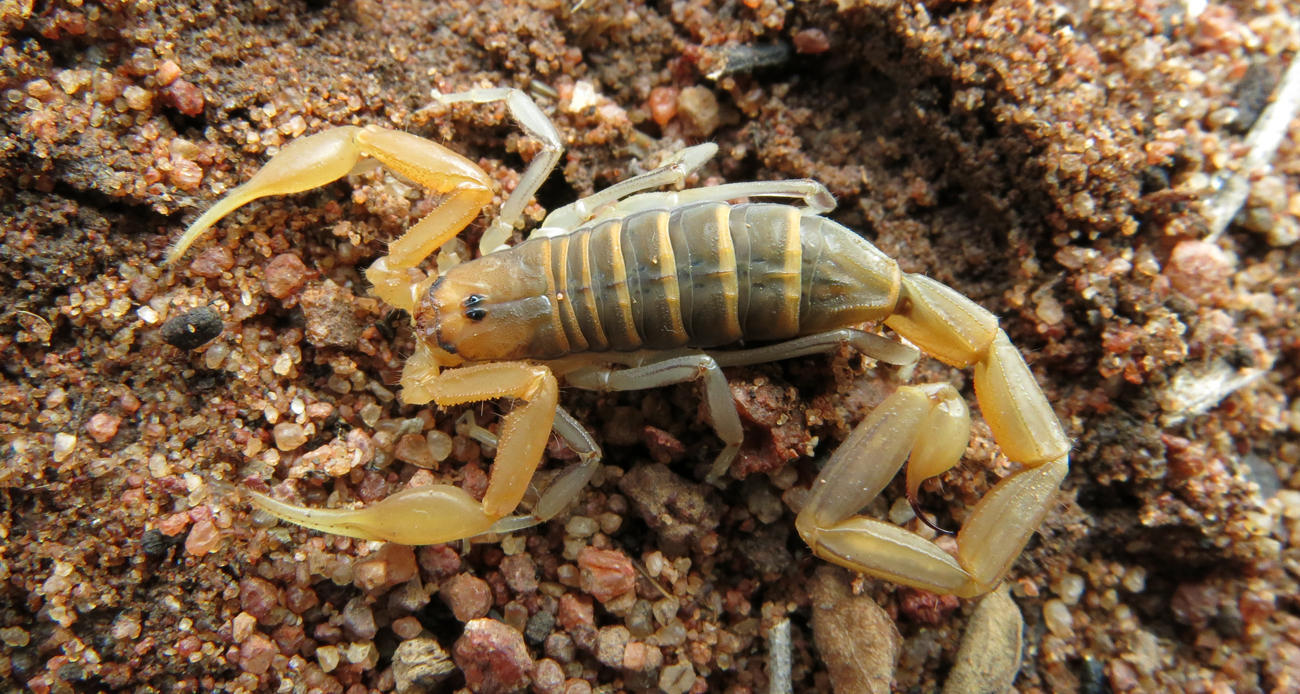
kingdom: Animalia
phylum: Arthropoda
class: Arachnida
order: Scorpiones
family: Buthidae
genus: Uroplectes
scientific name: Uroplectes planimanus
